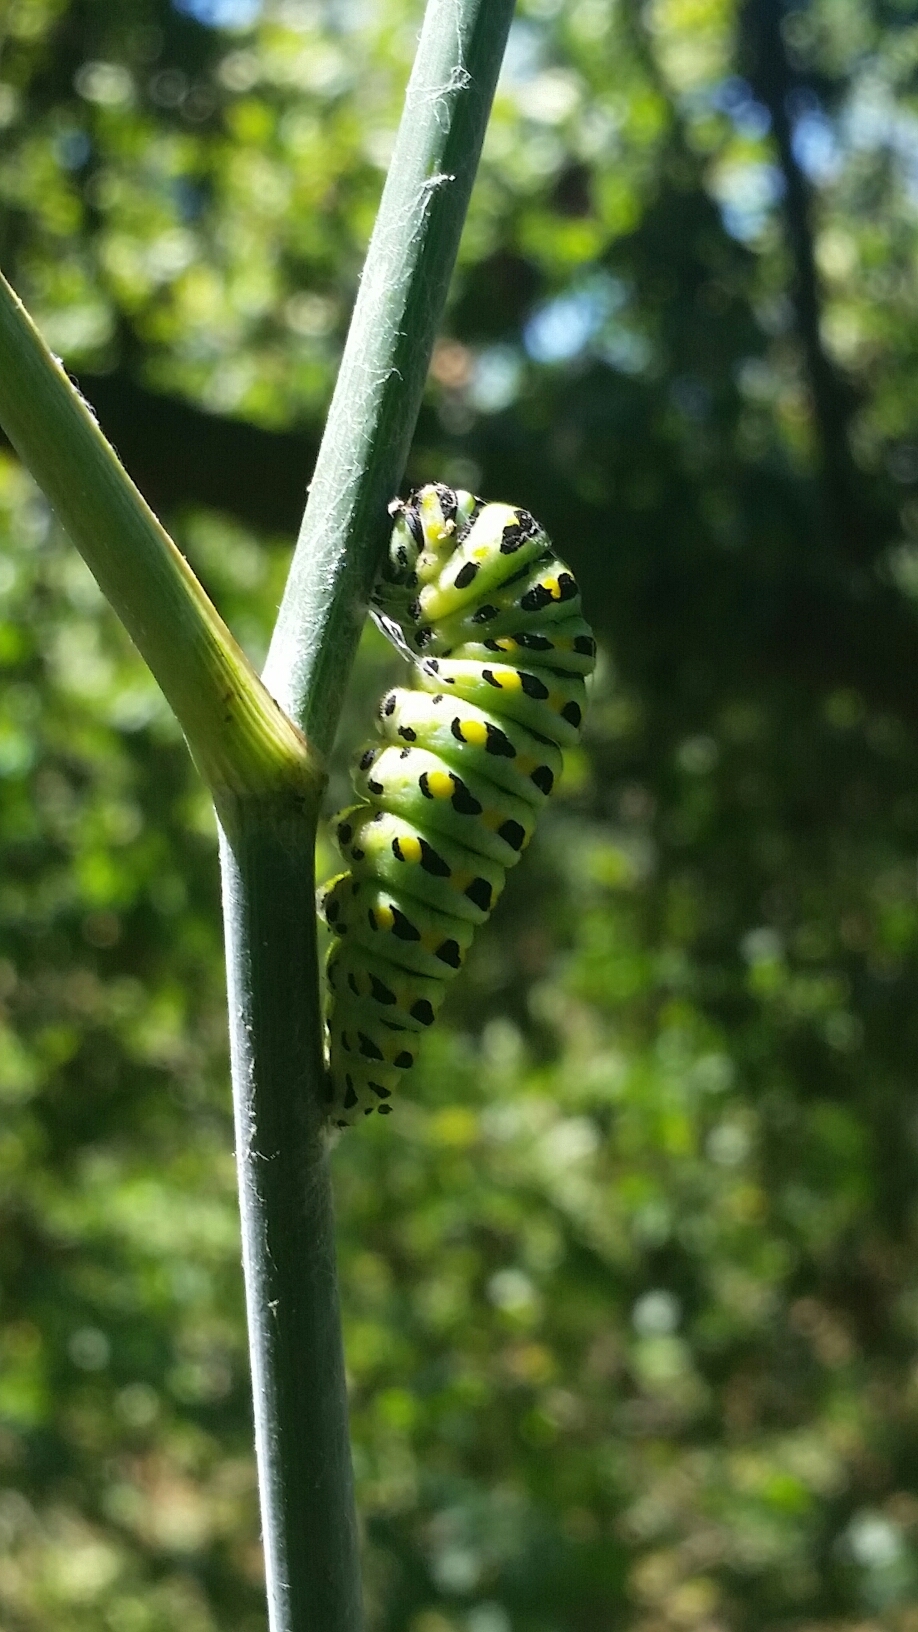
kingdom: Animalia
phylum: Arthropoda
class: Insecta
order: Lepidoptera
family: Papilionidae
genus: Papilio
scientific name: Papilio zelicaon
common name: Anise swallowtail
